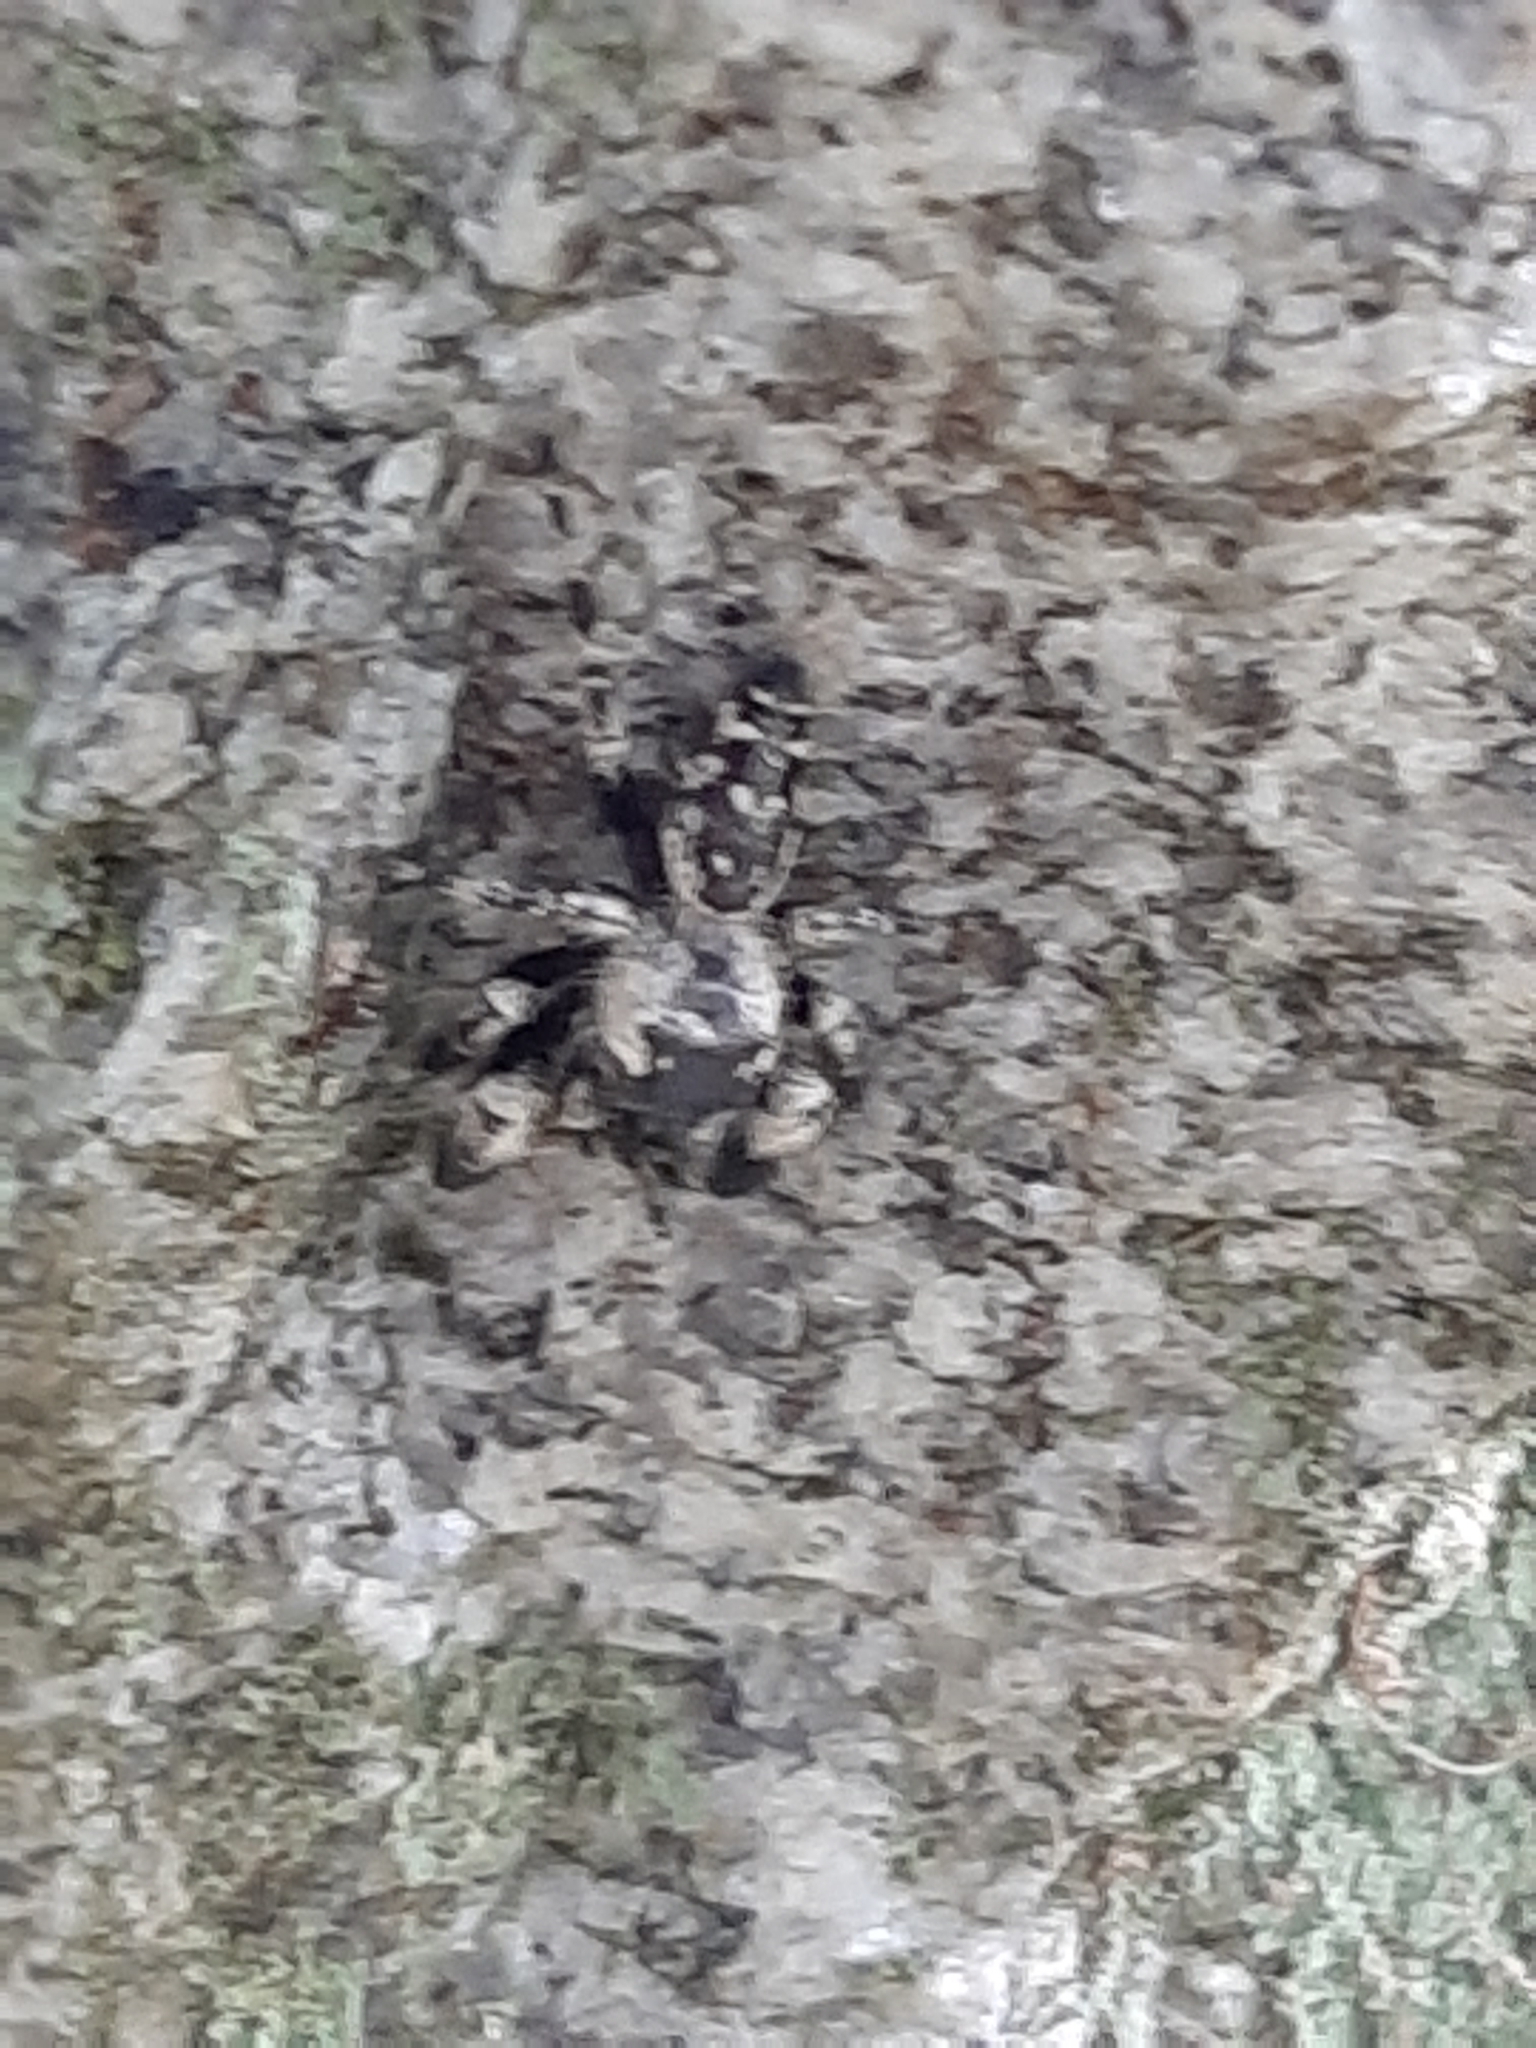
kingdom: Animalia
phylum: Arthropoda
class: Arachnida
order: Araneae
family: Salticidae
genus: Phidippus
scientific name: Phidippus otiosus
